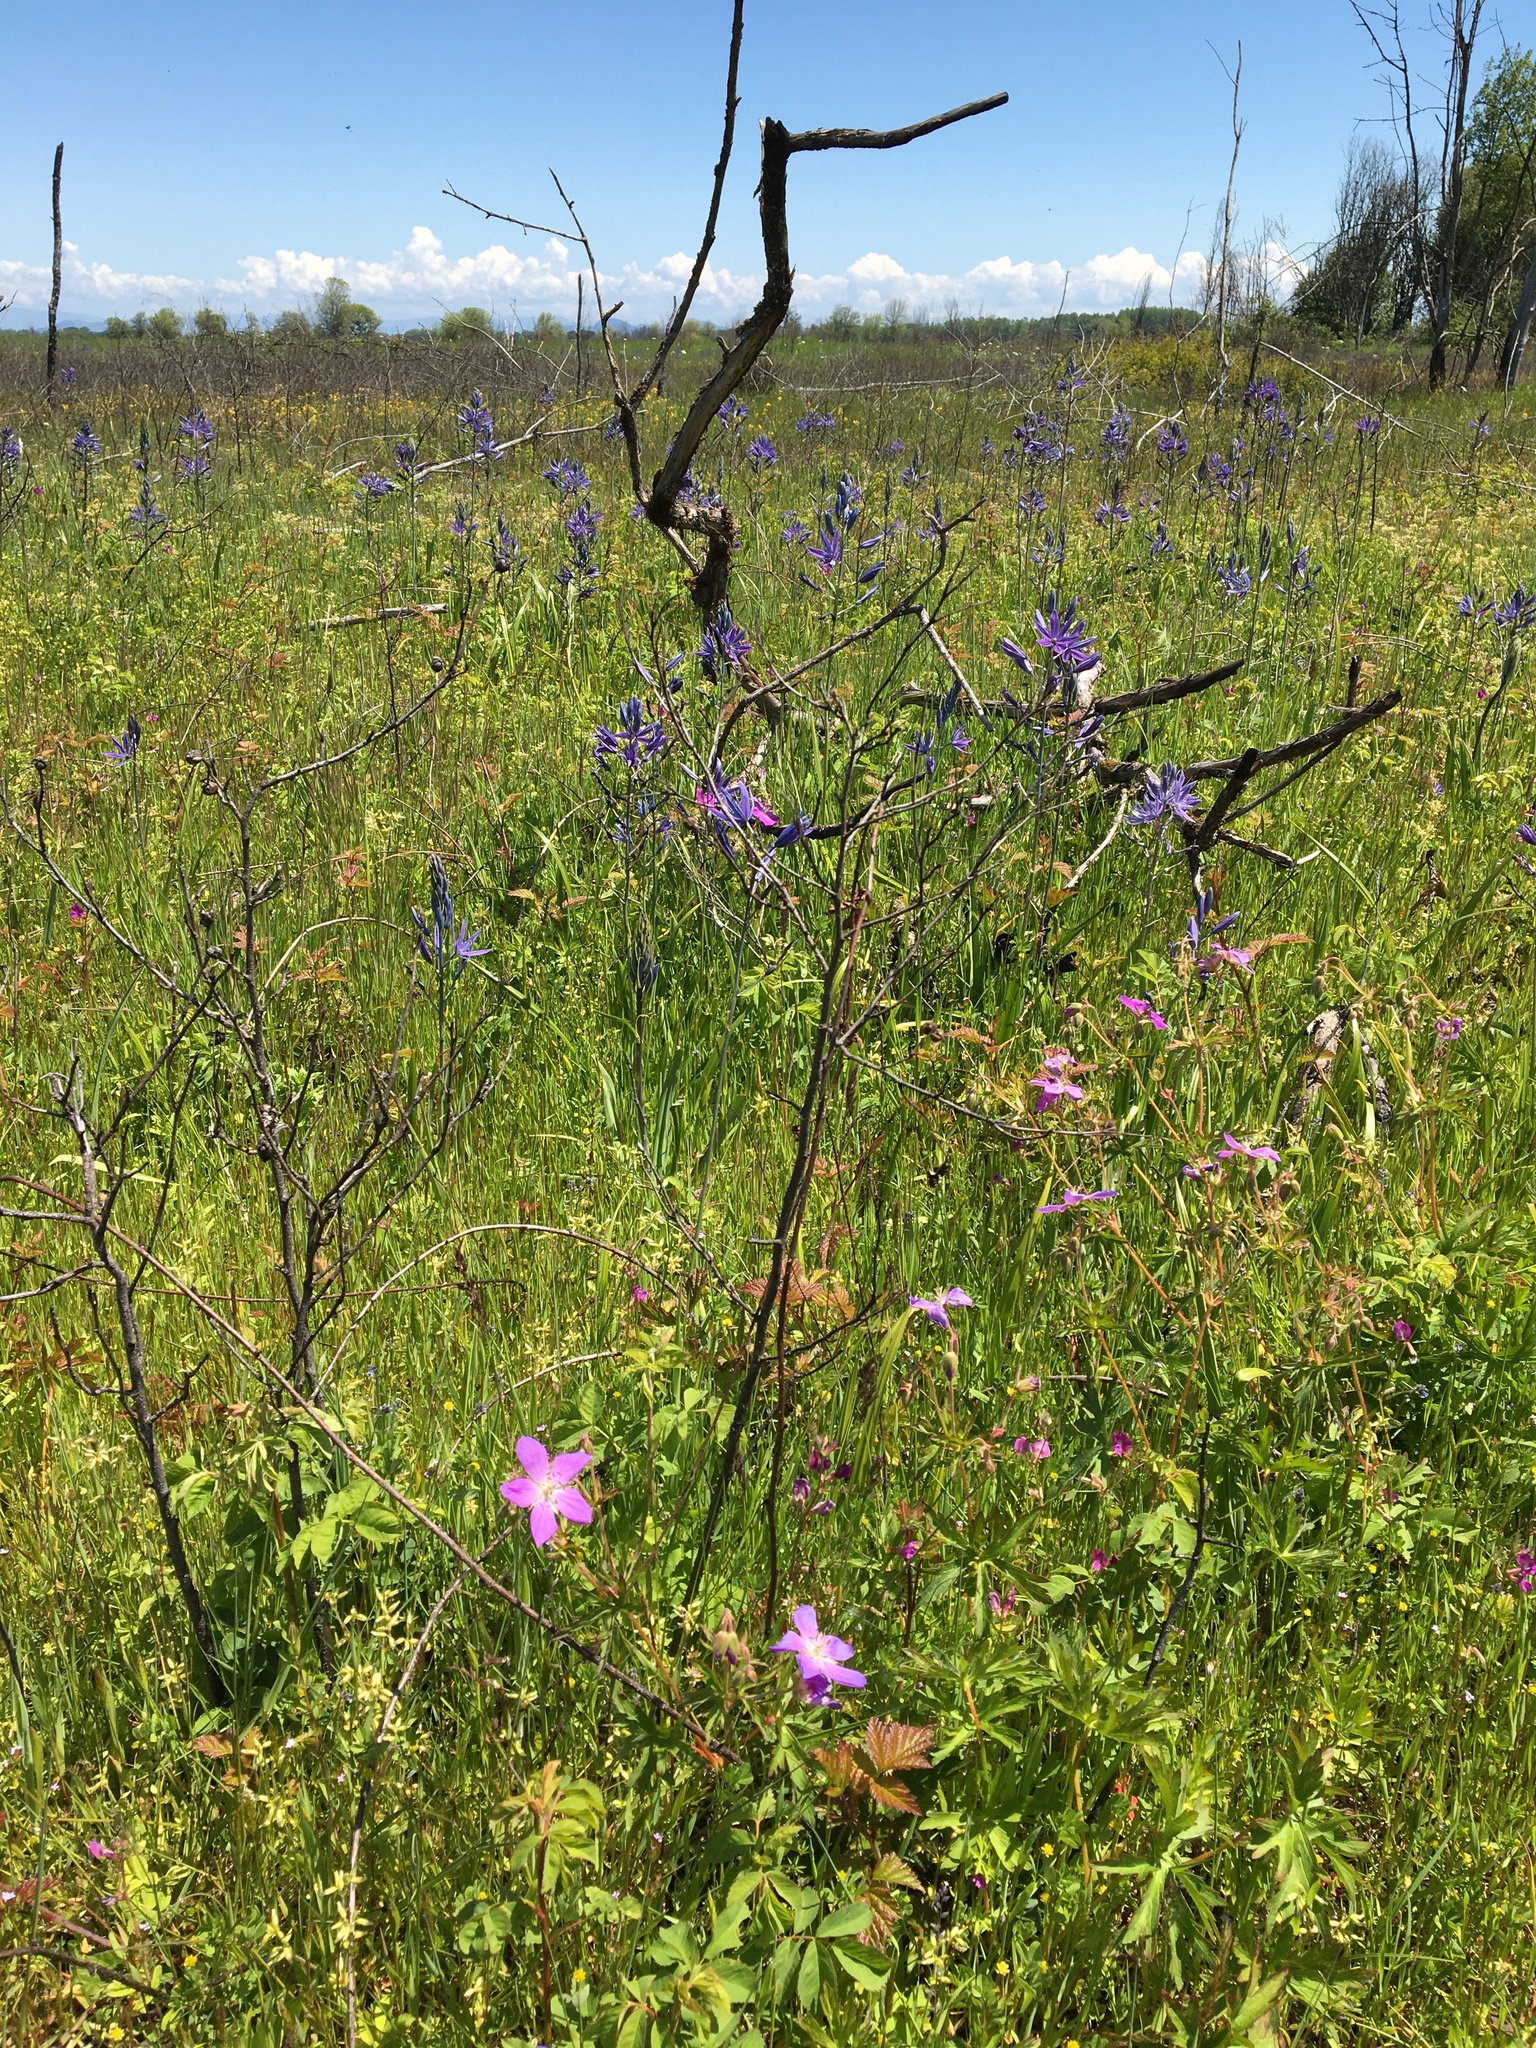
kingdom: Plantae
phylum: Tracheophyta
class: Magnoliopsida
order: Geraniales
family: Geraniaceae
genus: Geranium
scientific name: Geranium oreganum
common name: Oregon crane's-bill
